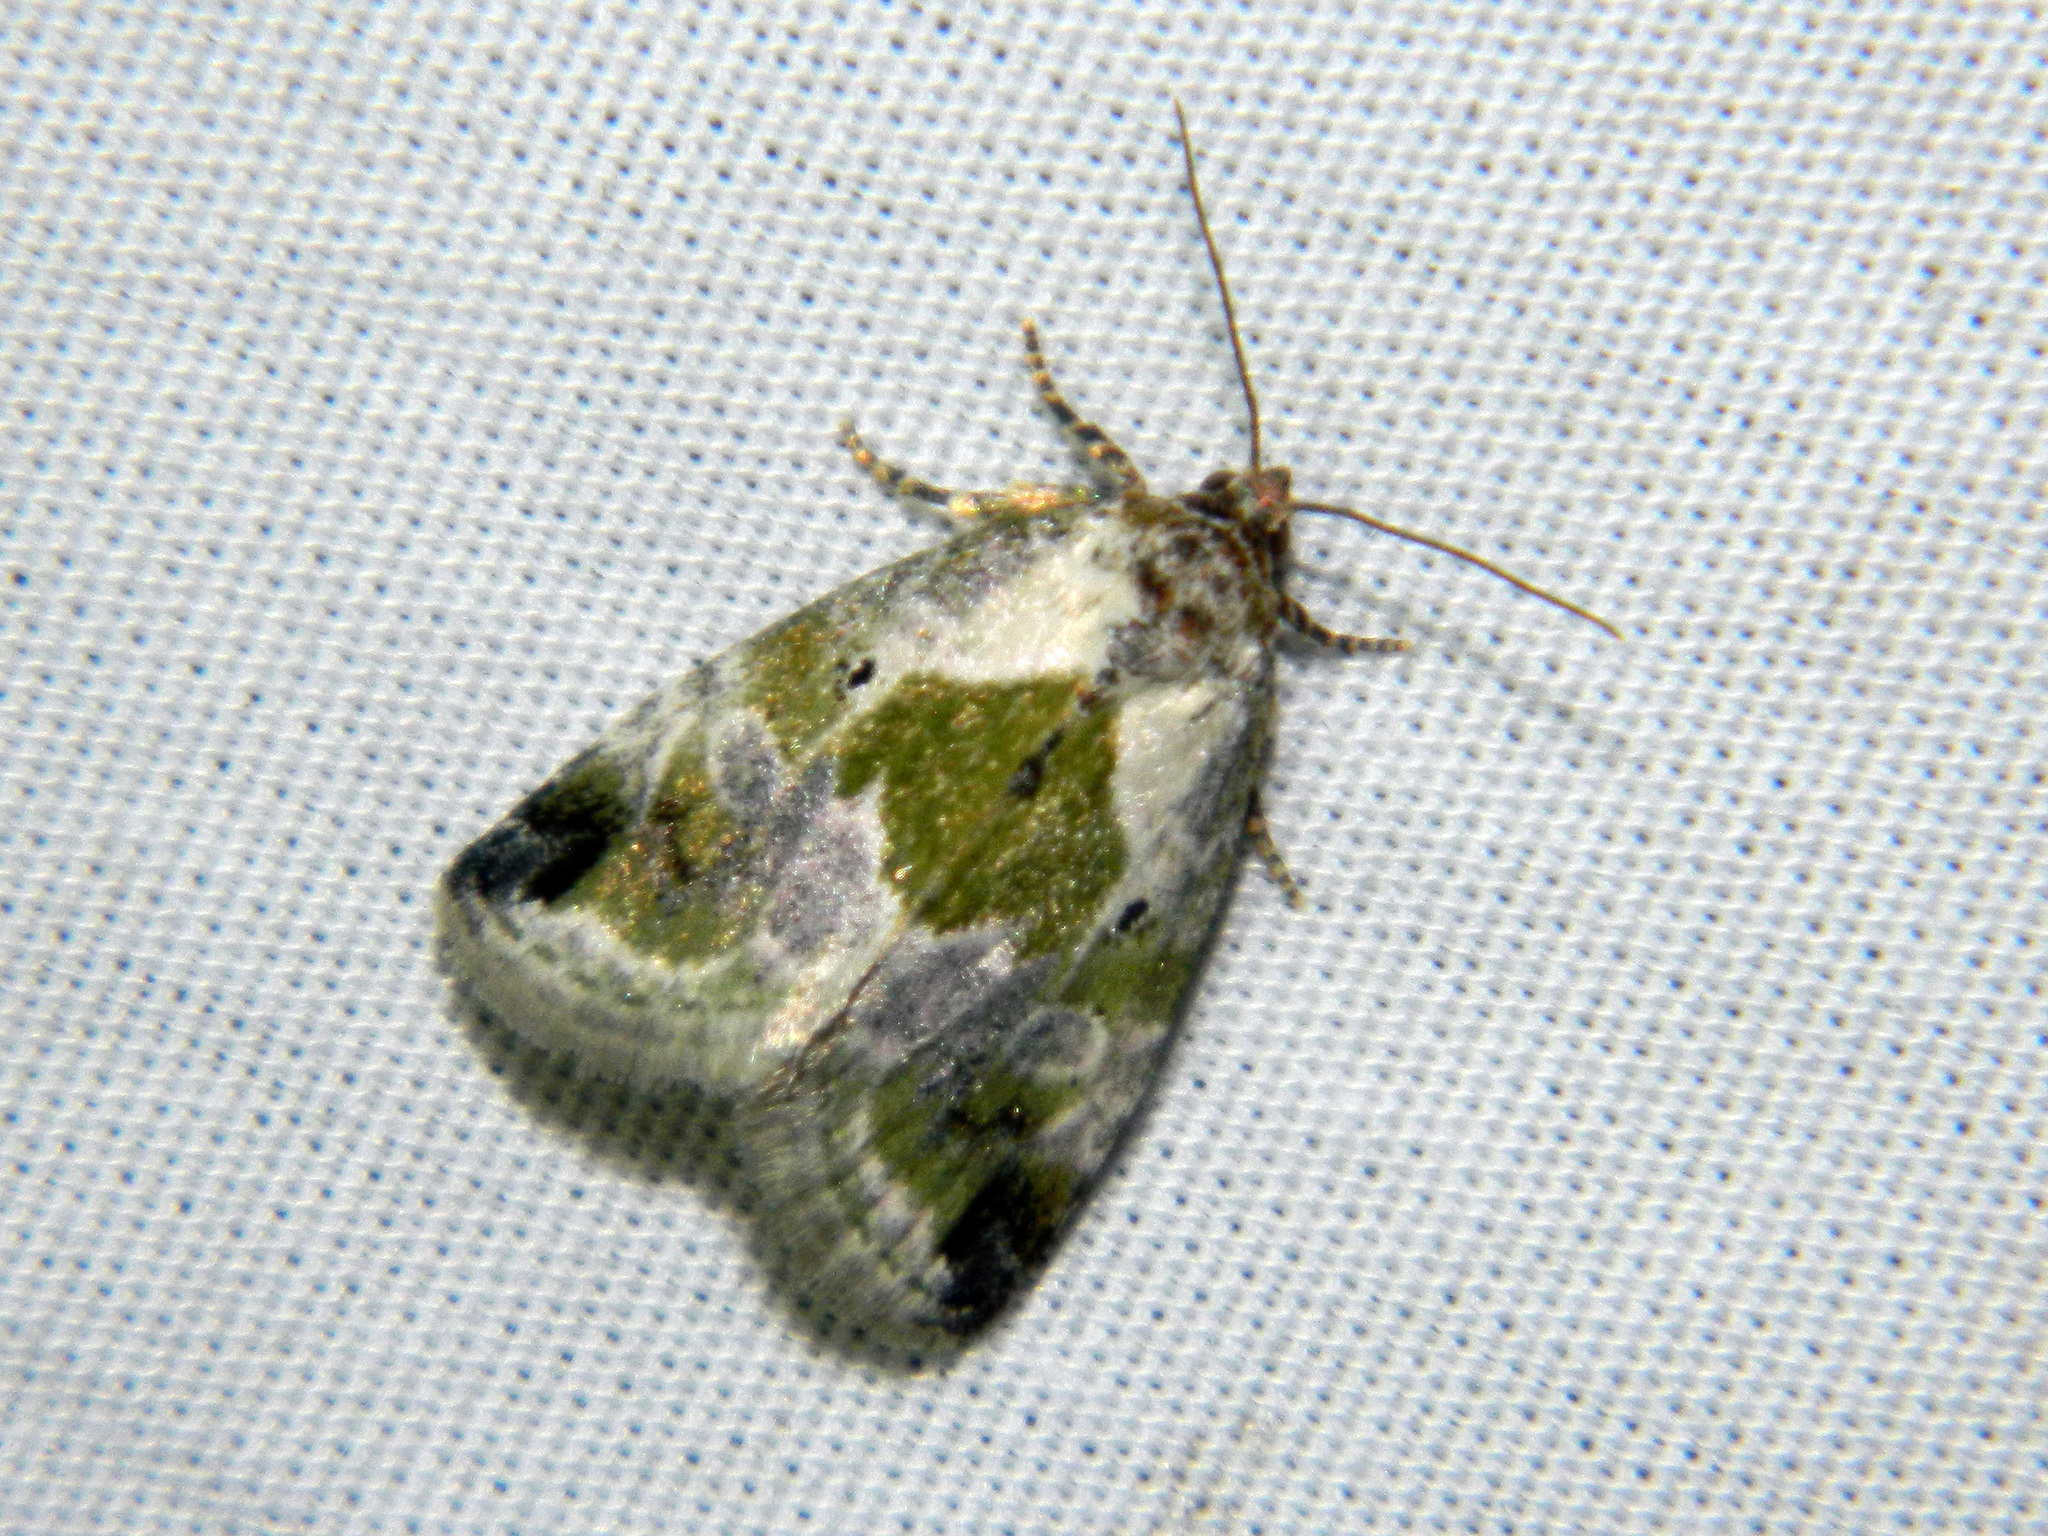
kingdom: Animalia
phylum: Arthropoda
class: Insecta
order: Lepidoptera
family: Noctuidae
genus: Maliattha
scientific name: Maliattha synochitis
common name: Black-dotted glyph
